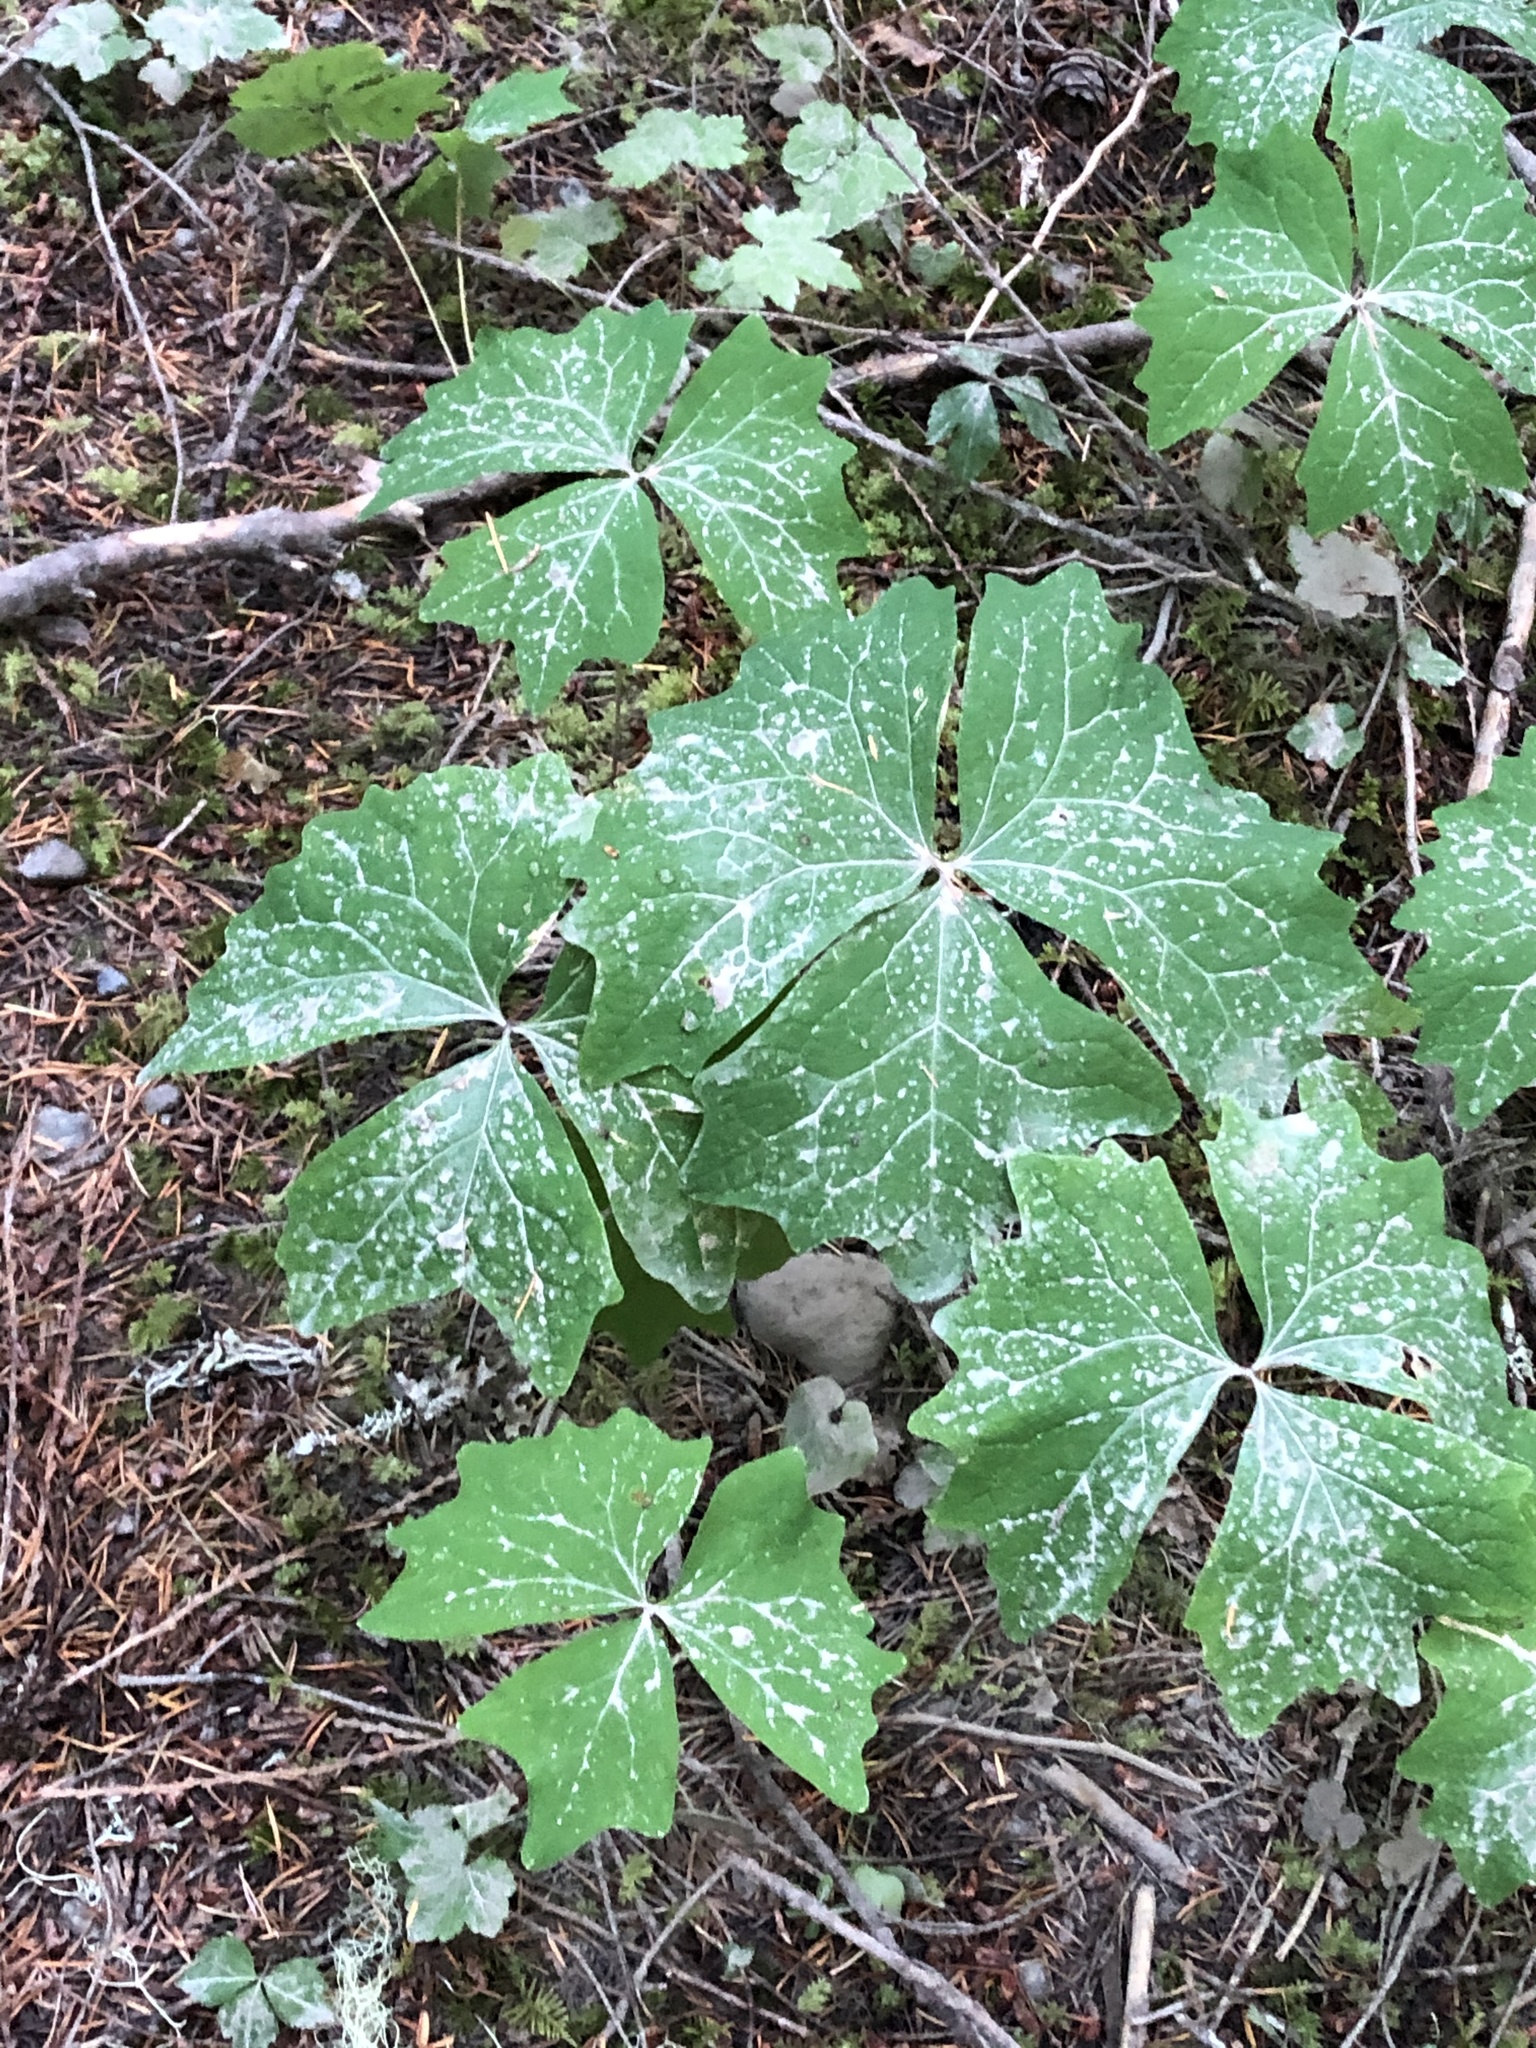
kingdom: Plantae
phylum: Tracheophyta
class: Magnoliopsida
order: Ranunculales
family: Berberidaceae
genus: Achlys
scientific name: Achlys triphylla
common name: Vanilla-leaf
